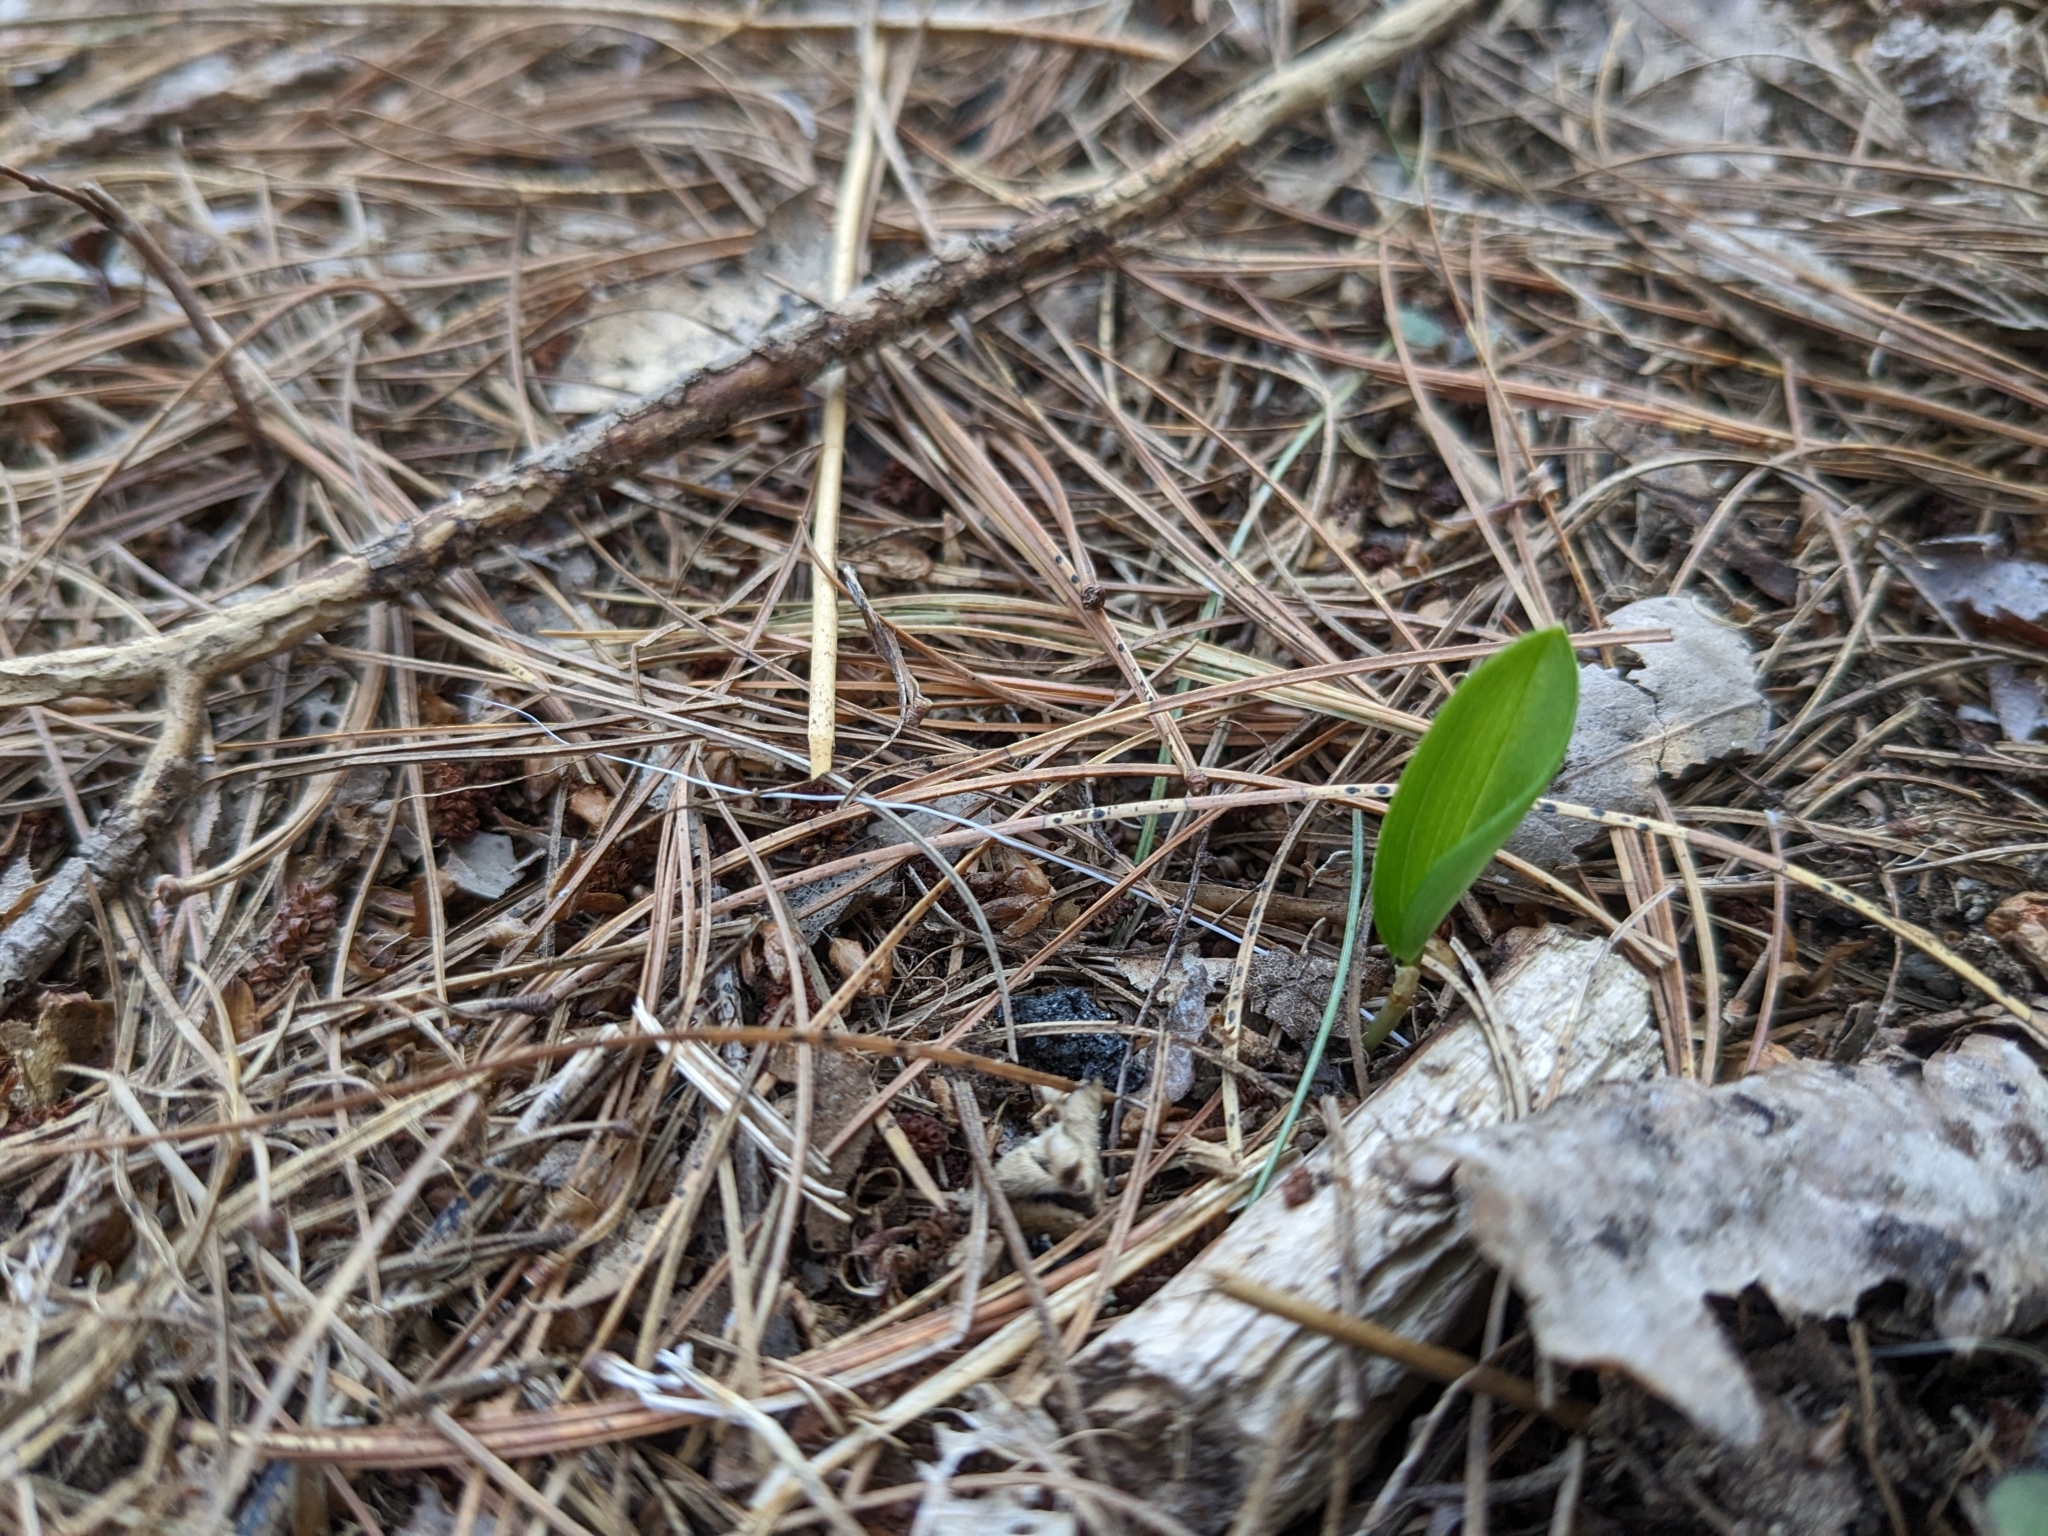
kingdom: Plantae
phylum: Tracheophyta
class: Liliopsida
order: Asparagales
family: Asparagaceae
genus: Maianthemum
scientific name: Maianthemum canadense
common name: False lily-of-the-valley
